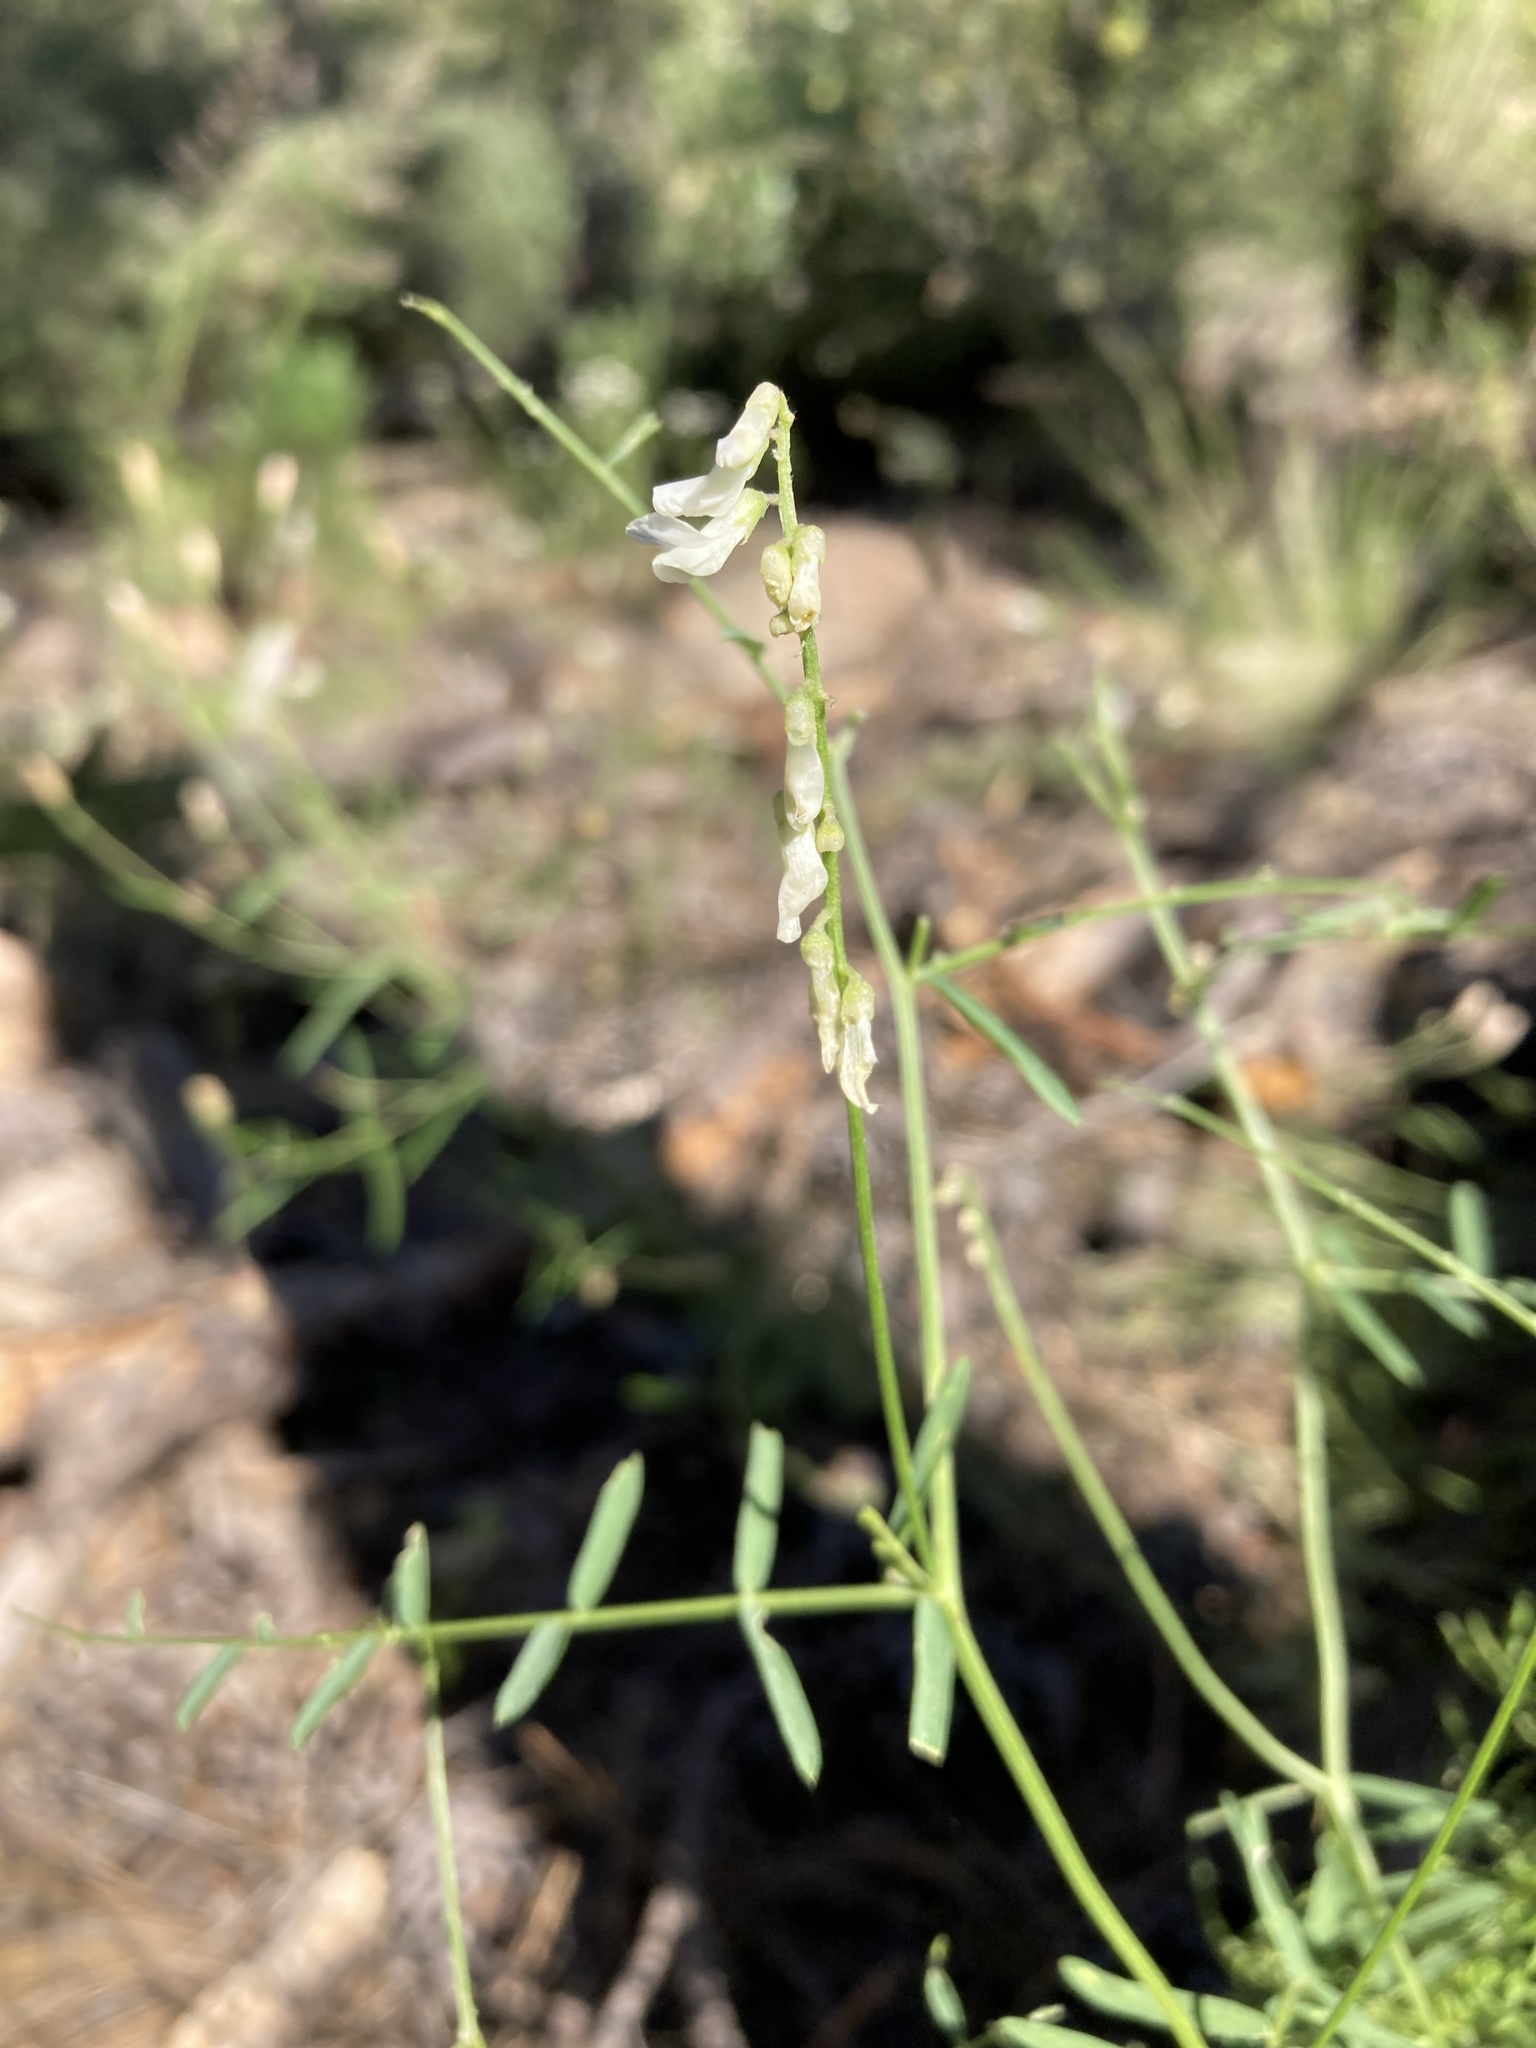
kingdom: Plantae
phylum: Tracheophyta
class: Magnoliopsida
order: Fabales
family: Fabaceae
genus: Vicia
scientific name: Vicia pulchella
